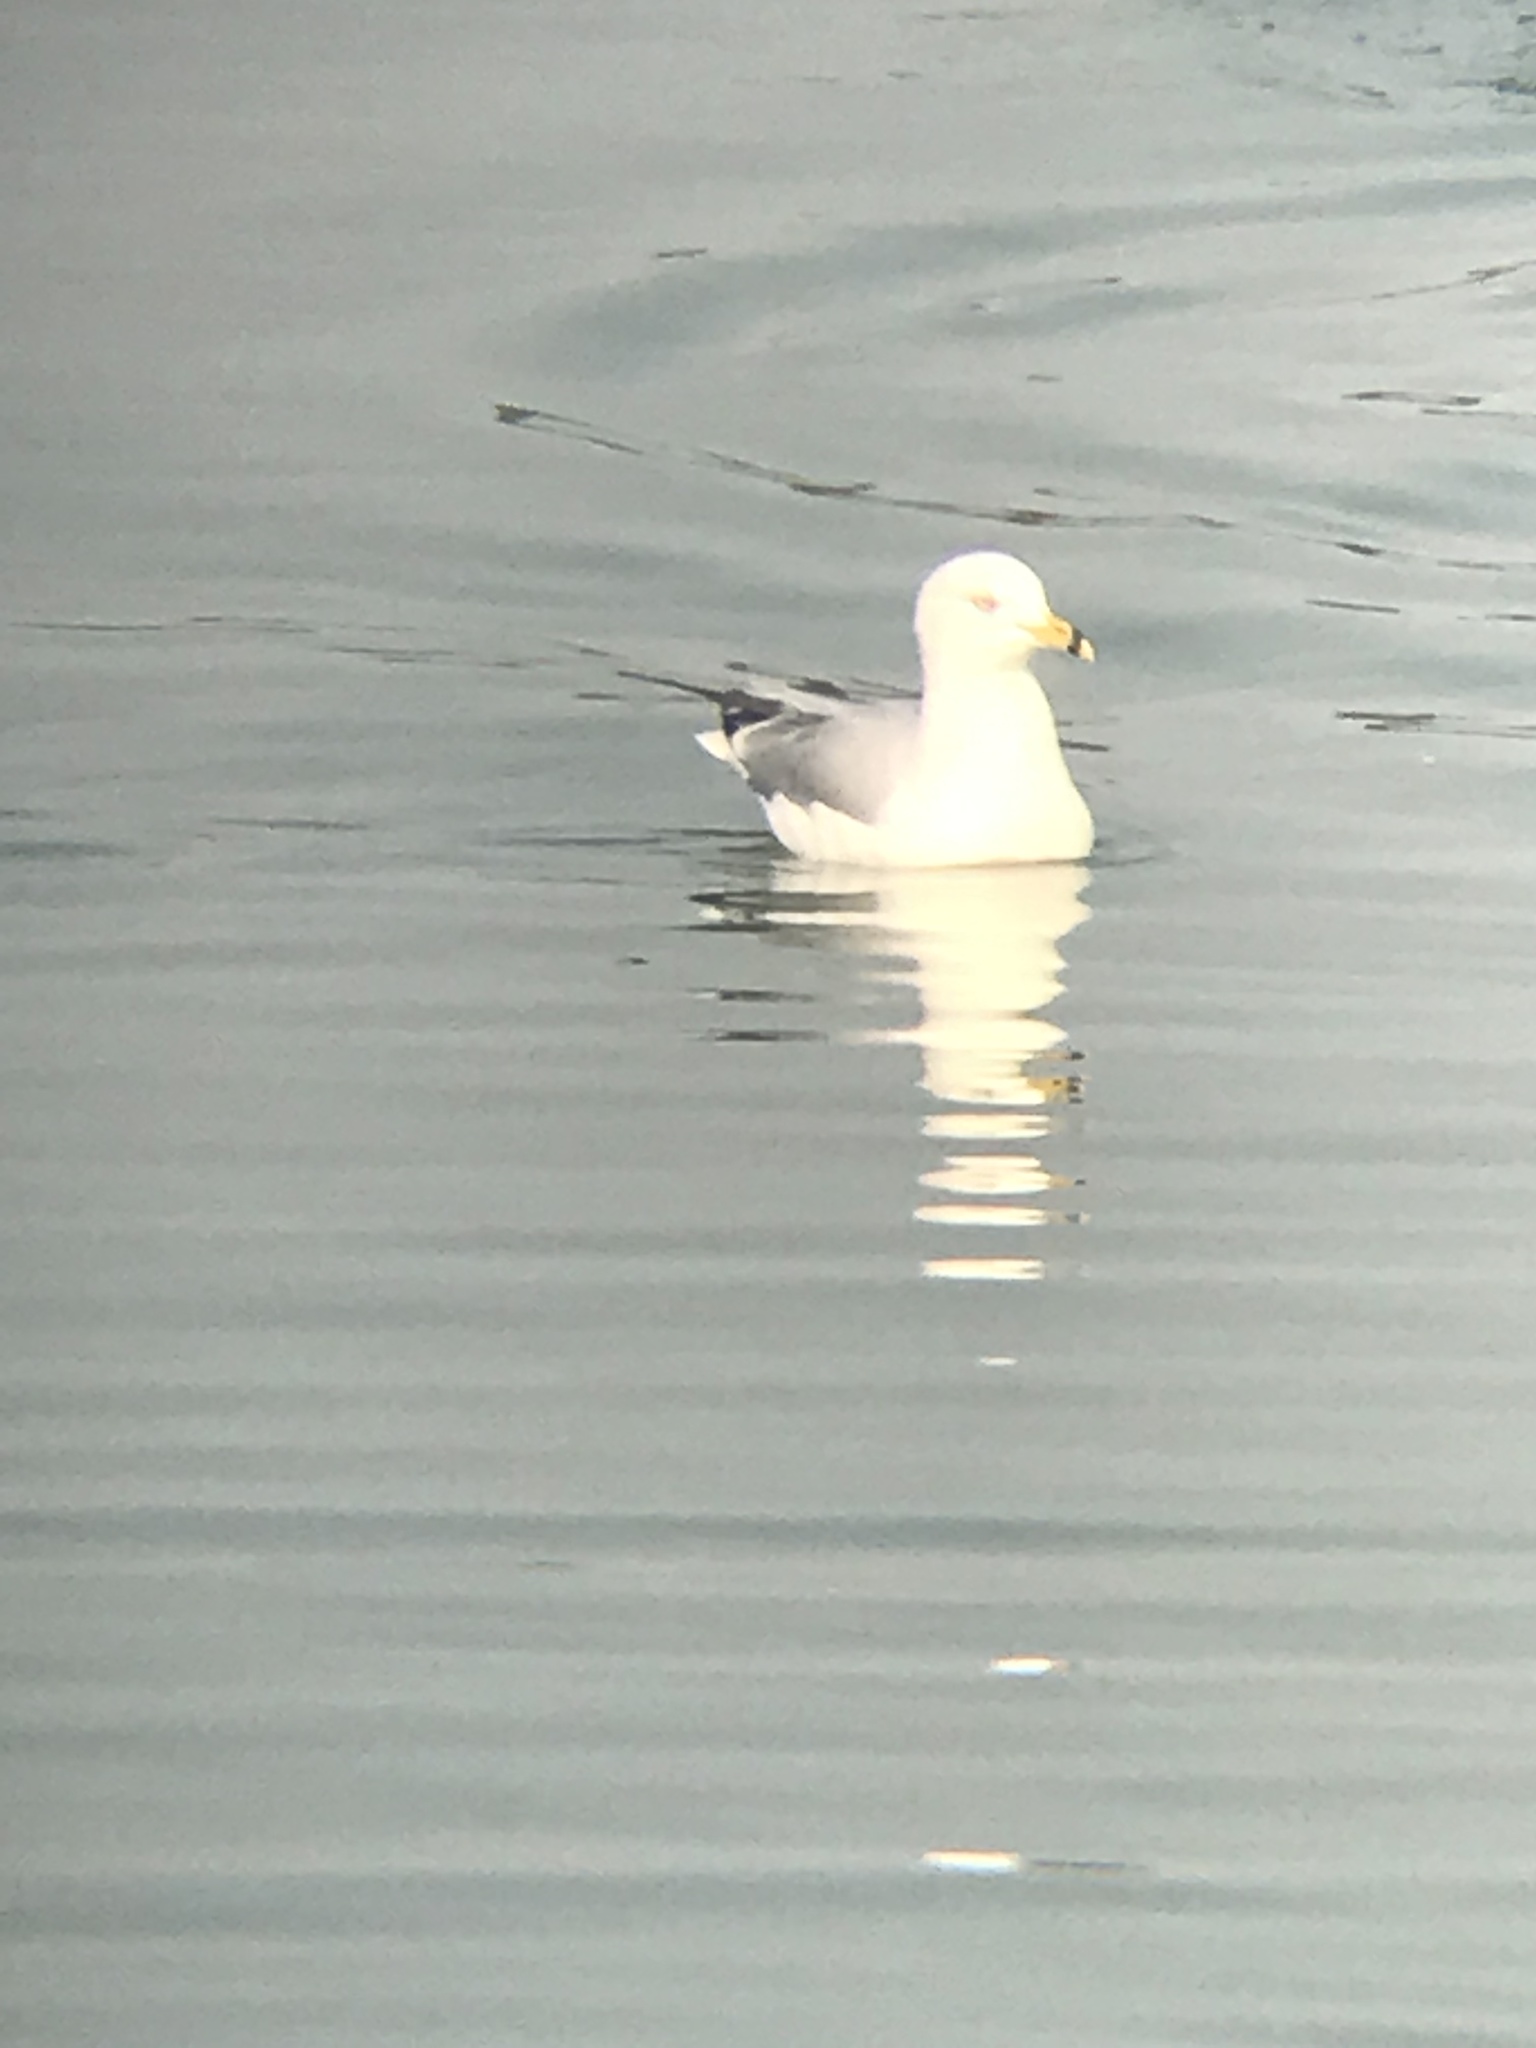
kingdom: Animalia
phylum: Chordata
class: Aves
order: Charadriiformes
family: Laridae
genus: Larus
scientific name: Larus delawarensis
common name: Ring-billed gull
